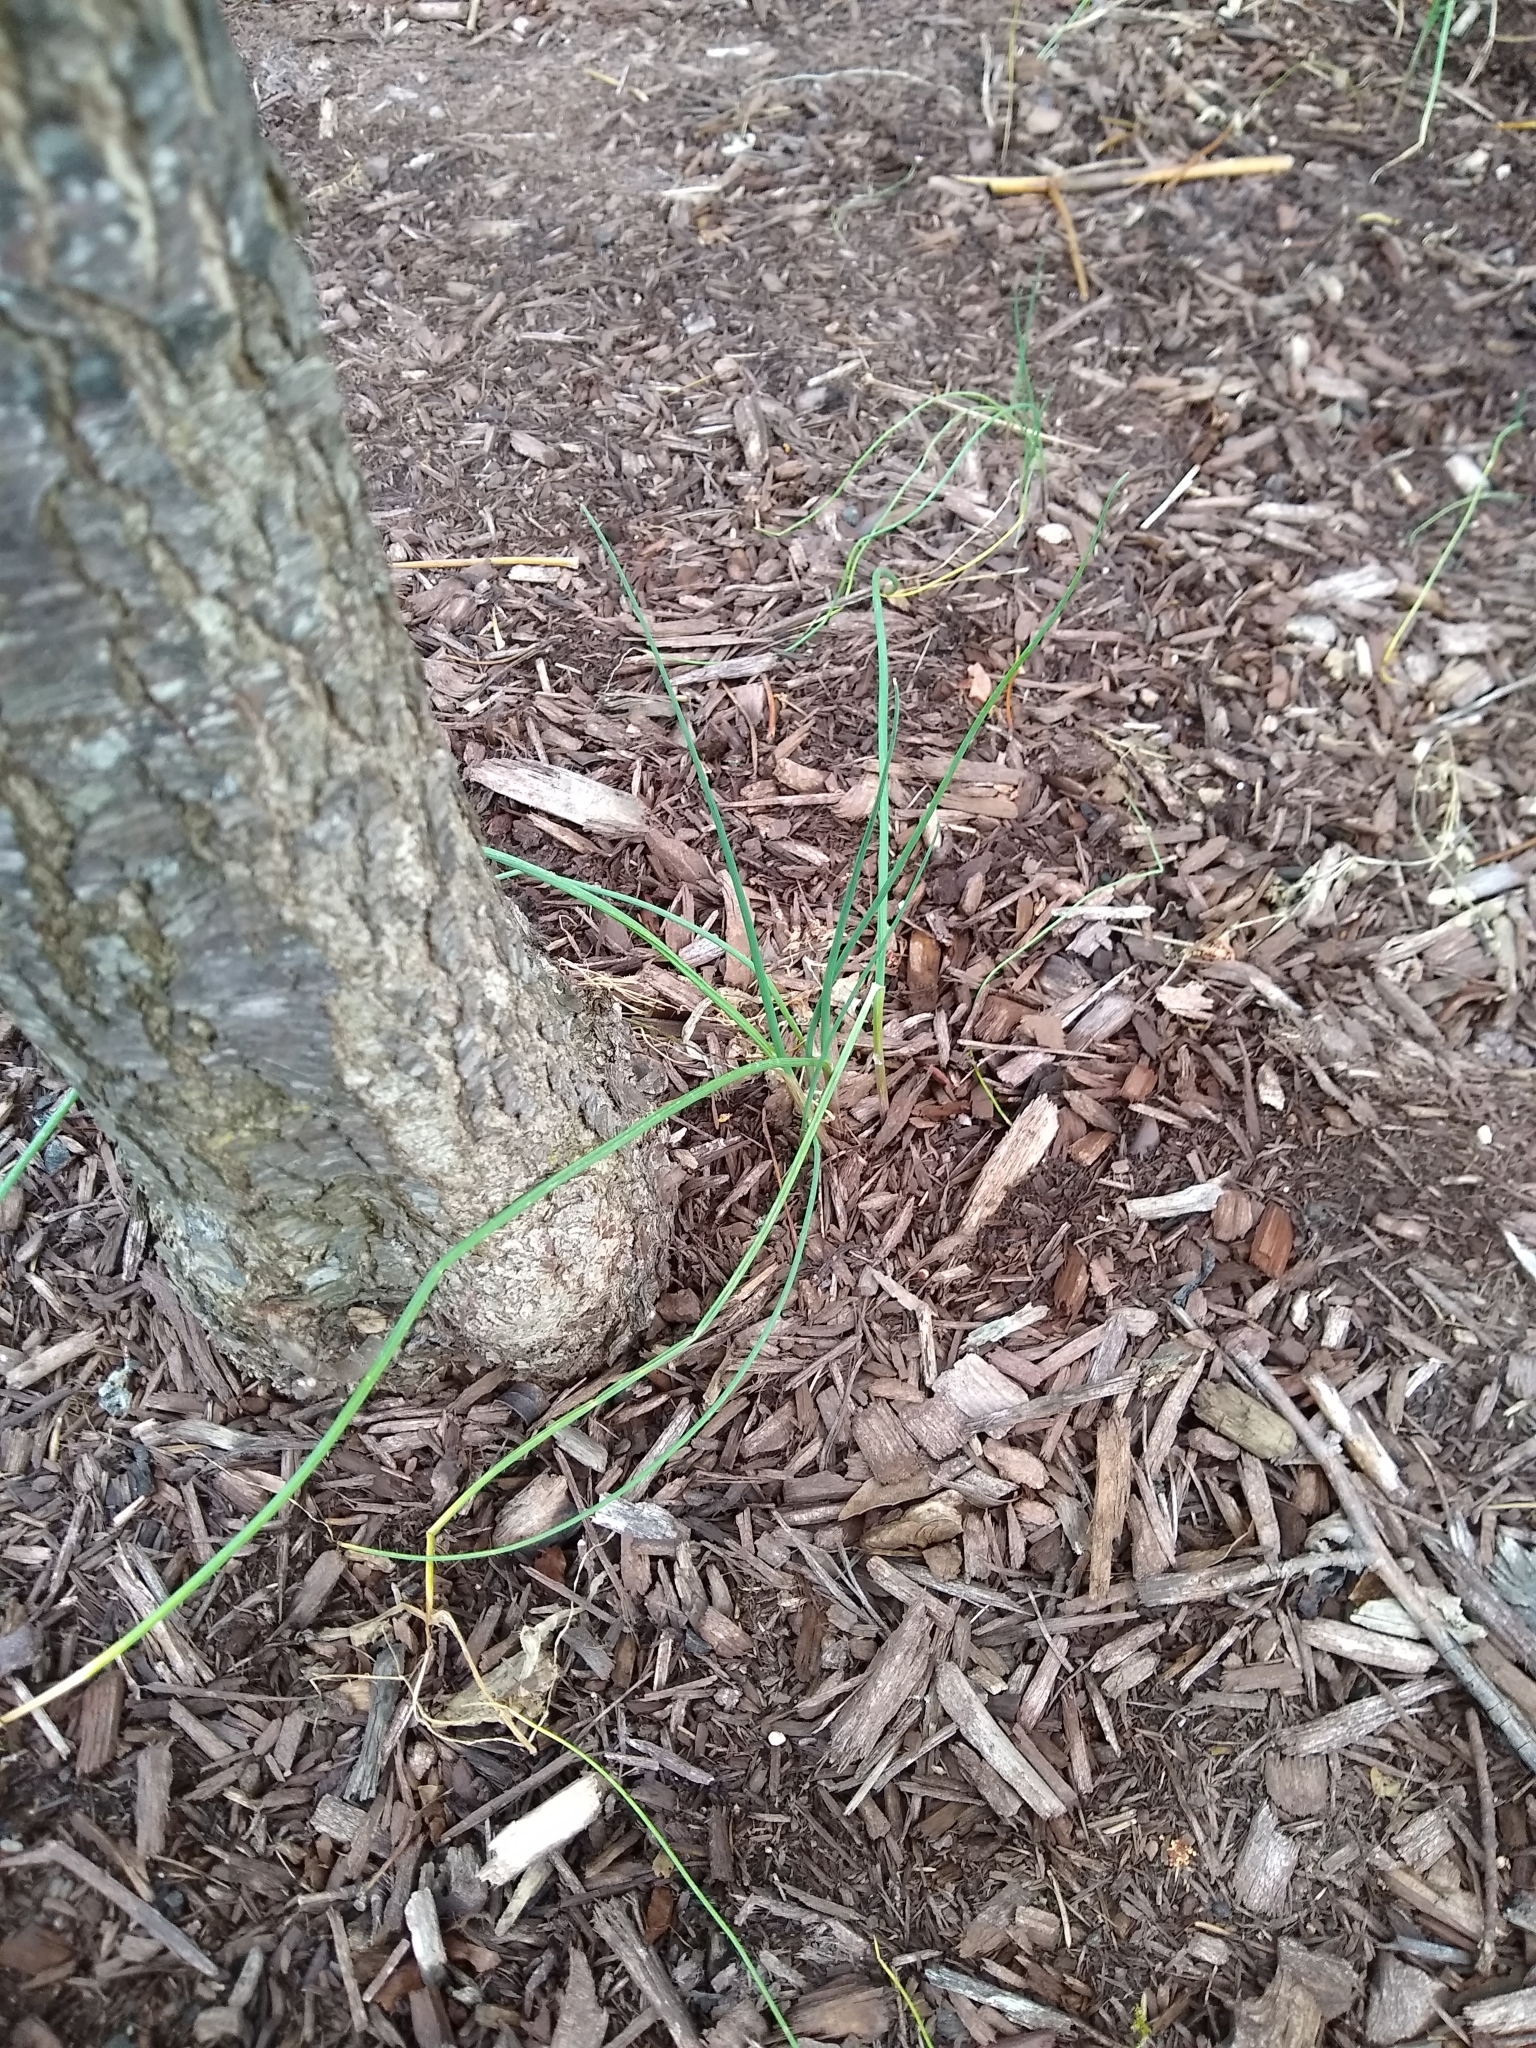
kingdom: Plantae
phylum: Tracheophyta
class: Liliopsida
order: Asparagales
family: Amaryllidaceae
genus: Allium
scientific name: Allium vineale
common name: Crow garlic
